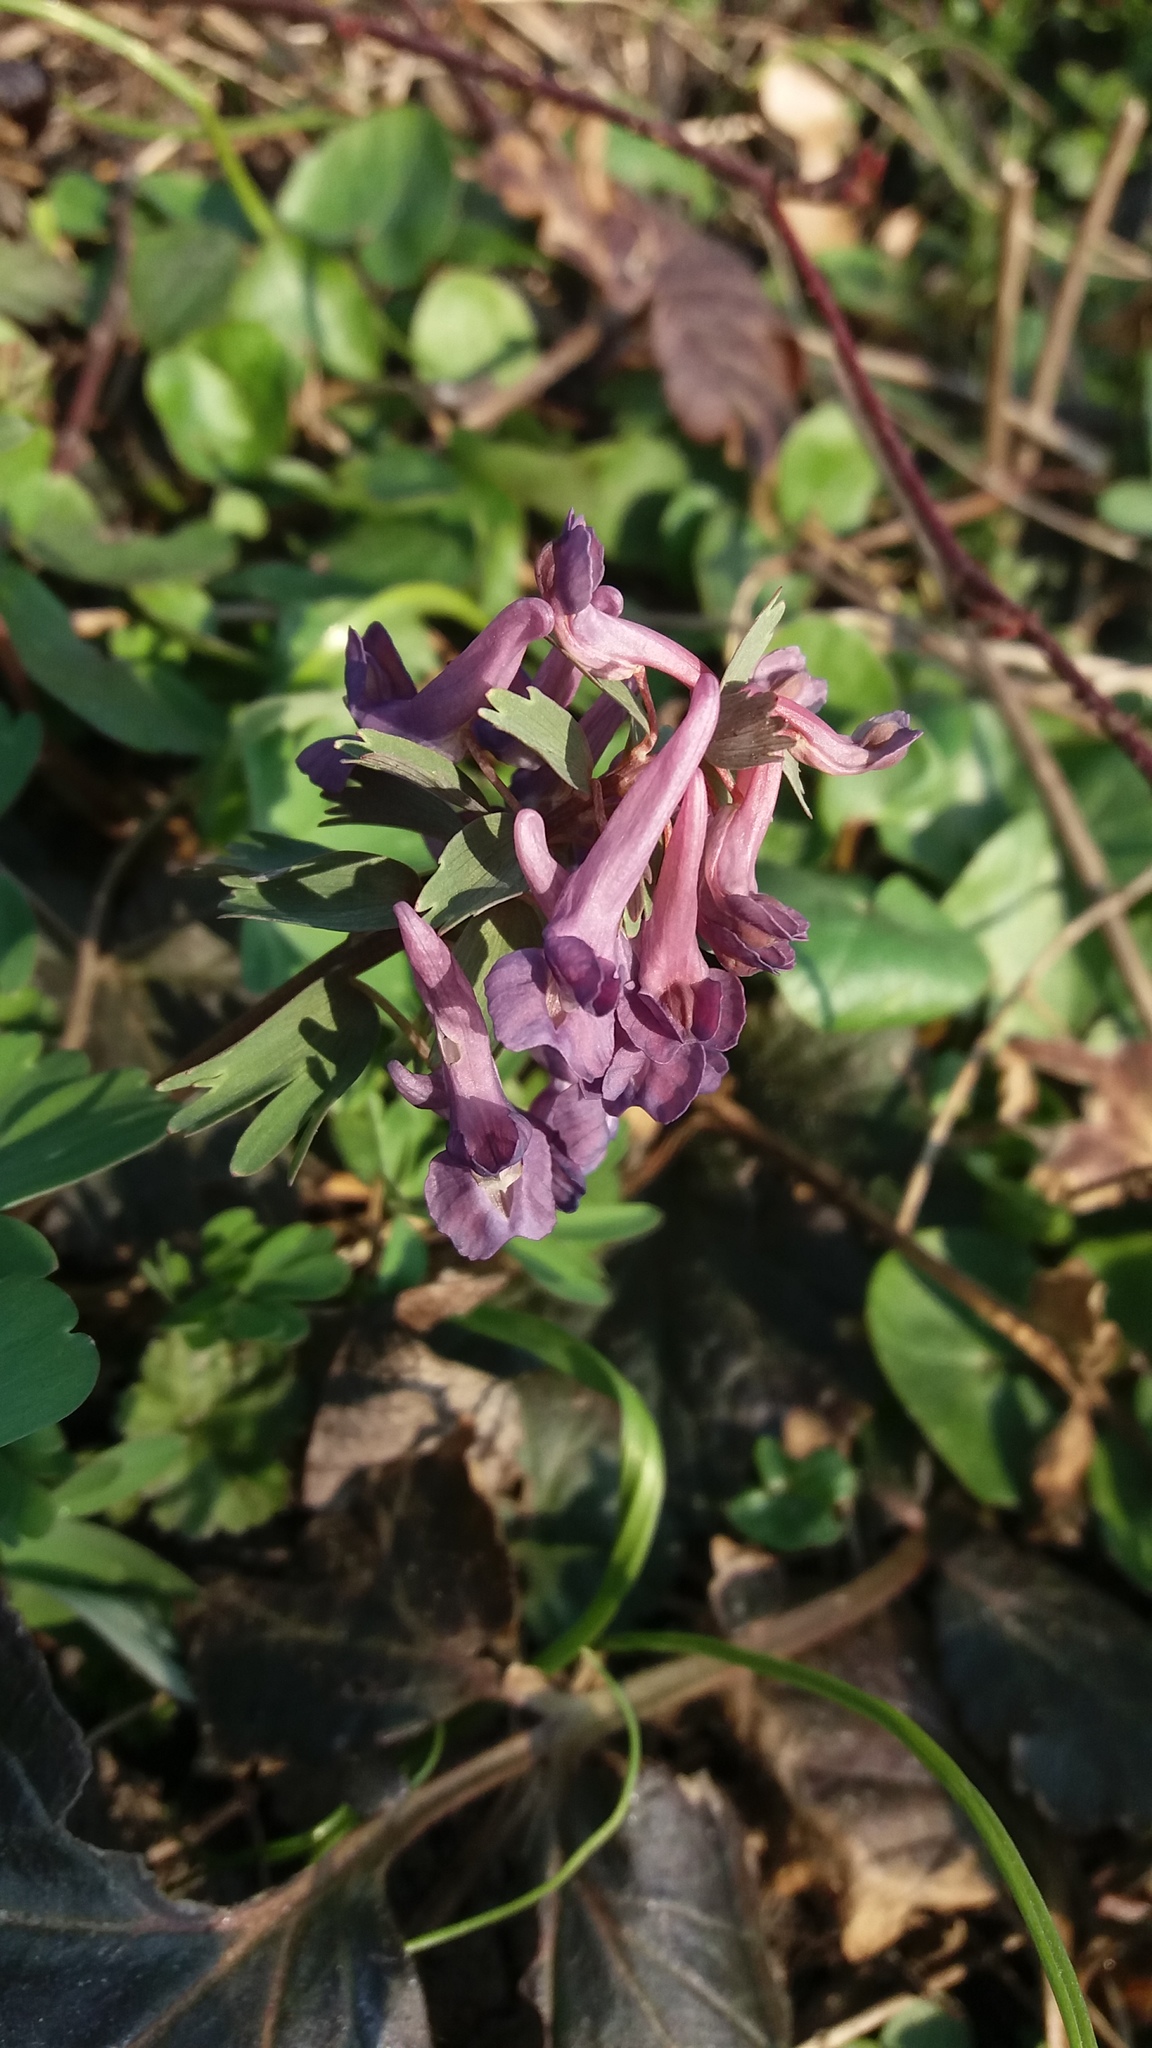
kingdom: Plantae
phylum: Tracheophyta
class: Magnoliopsida
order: Ranunculales
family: Papaveraceae
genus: Corydalis
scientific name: Corydalis solida
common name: Bird-in-a-bush
